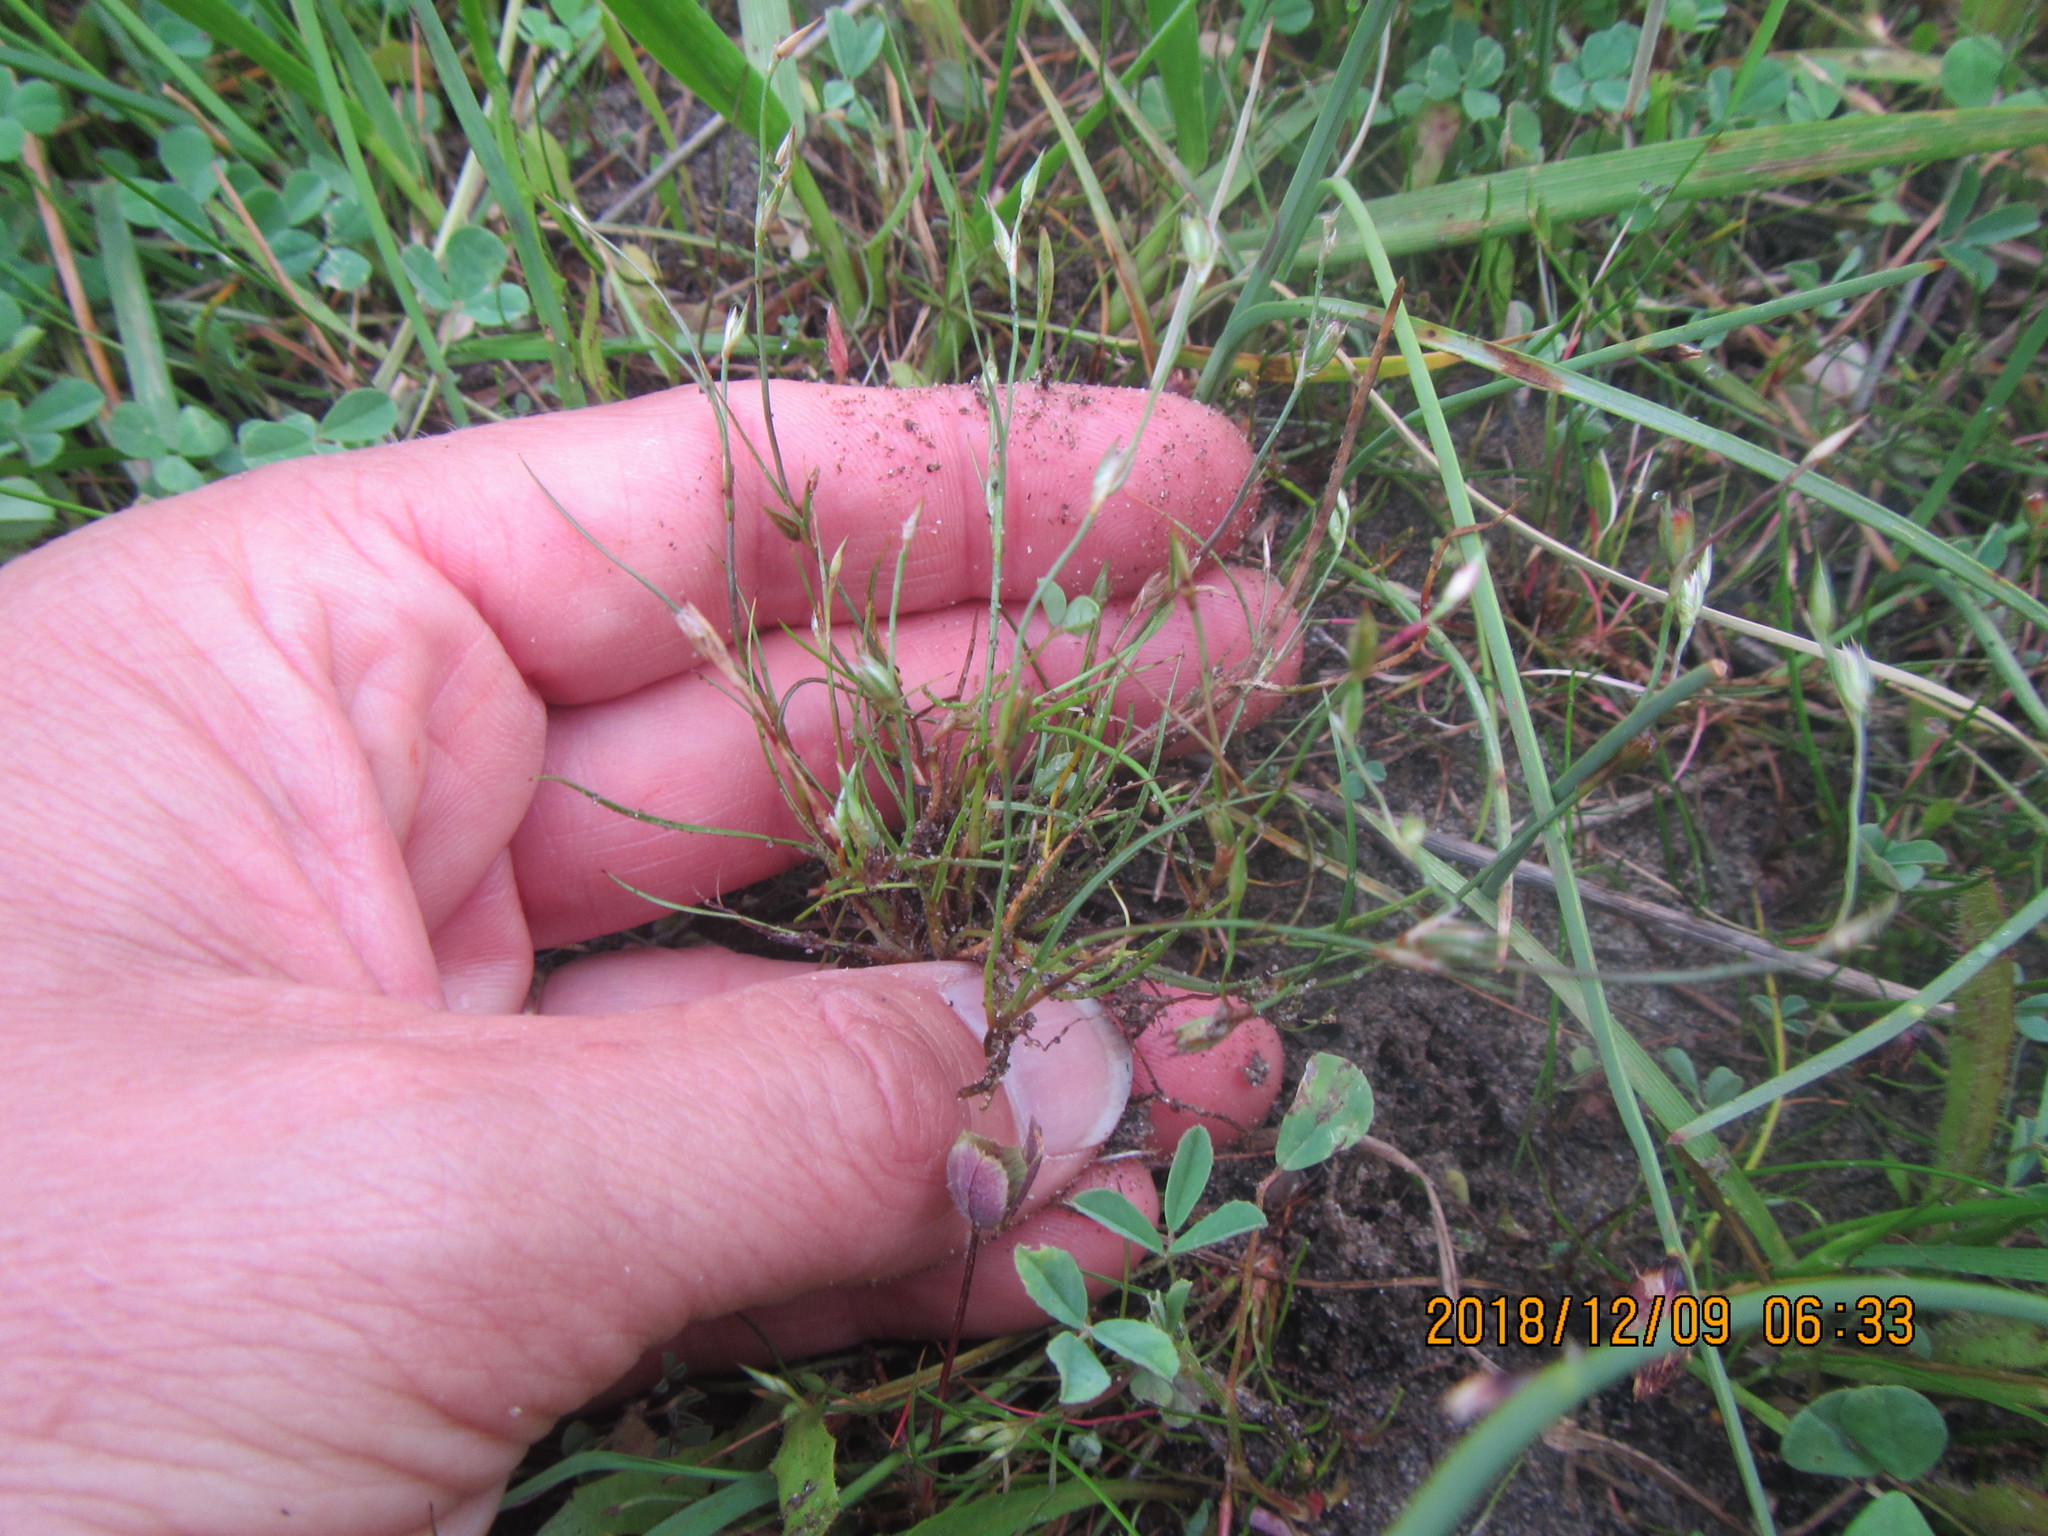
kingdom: Plantae
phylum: Tracheophyta
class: Liliopsida
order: Poales
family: Juncaceae
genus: Juncus
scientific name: Juncus bufonius
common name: Toad rush
